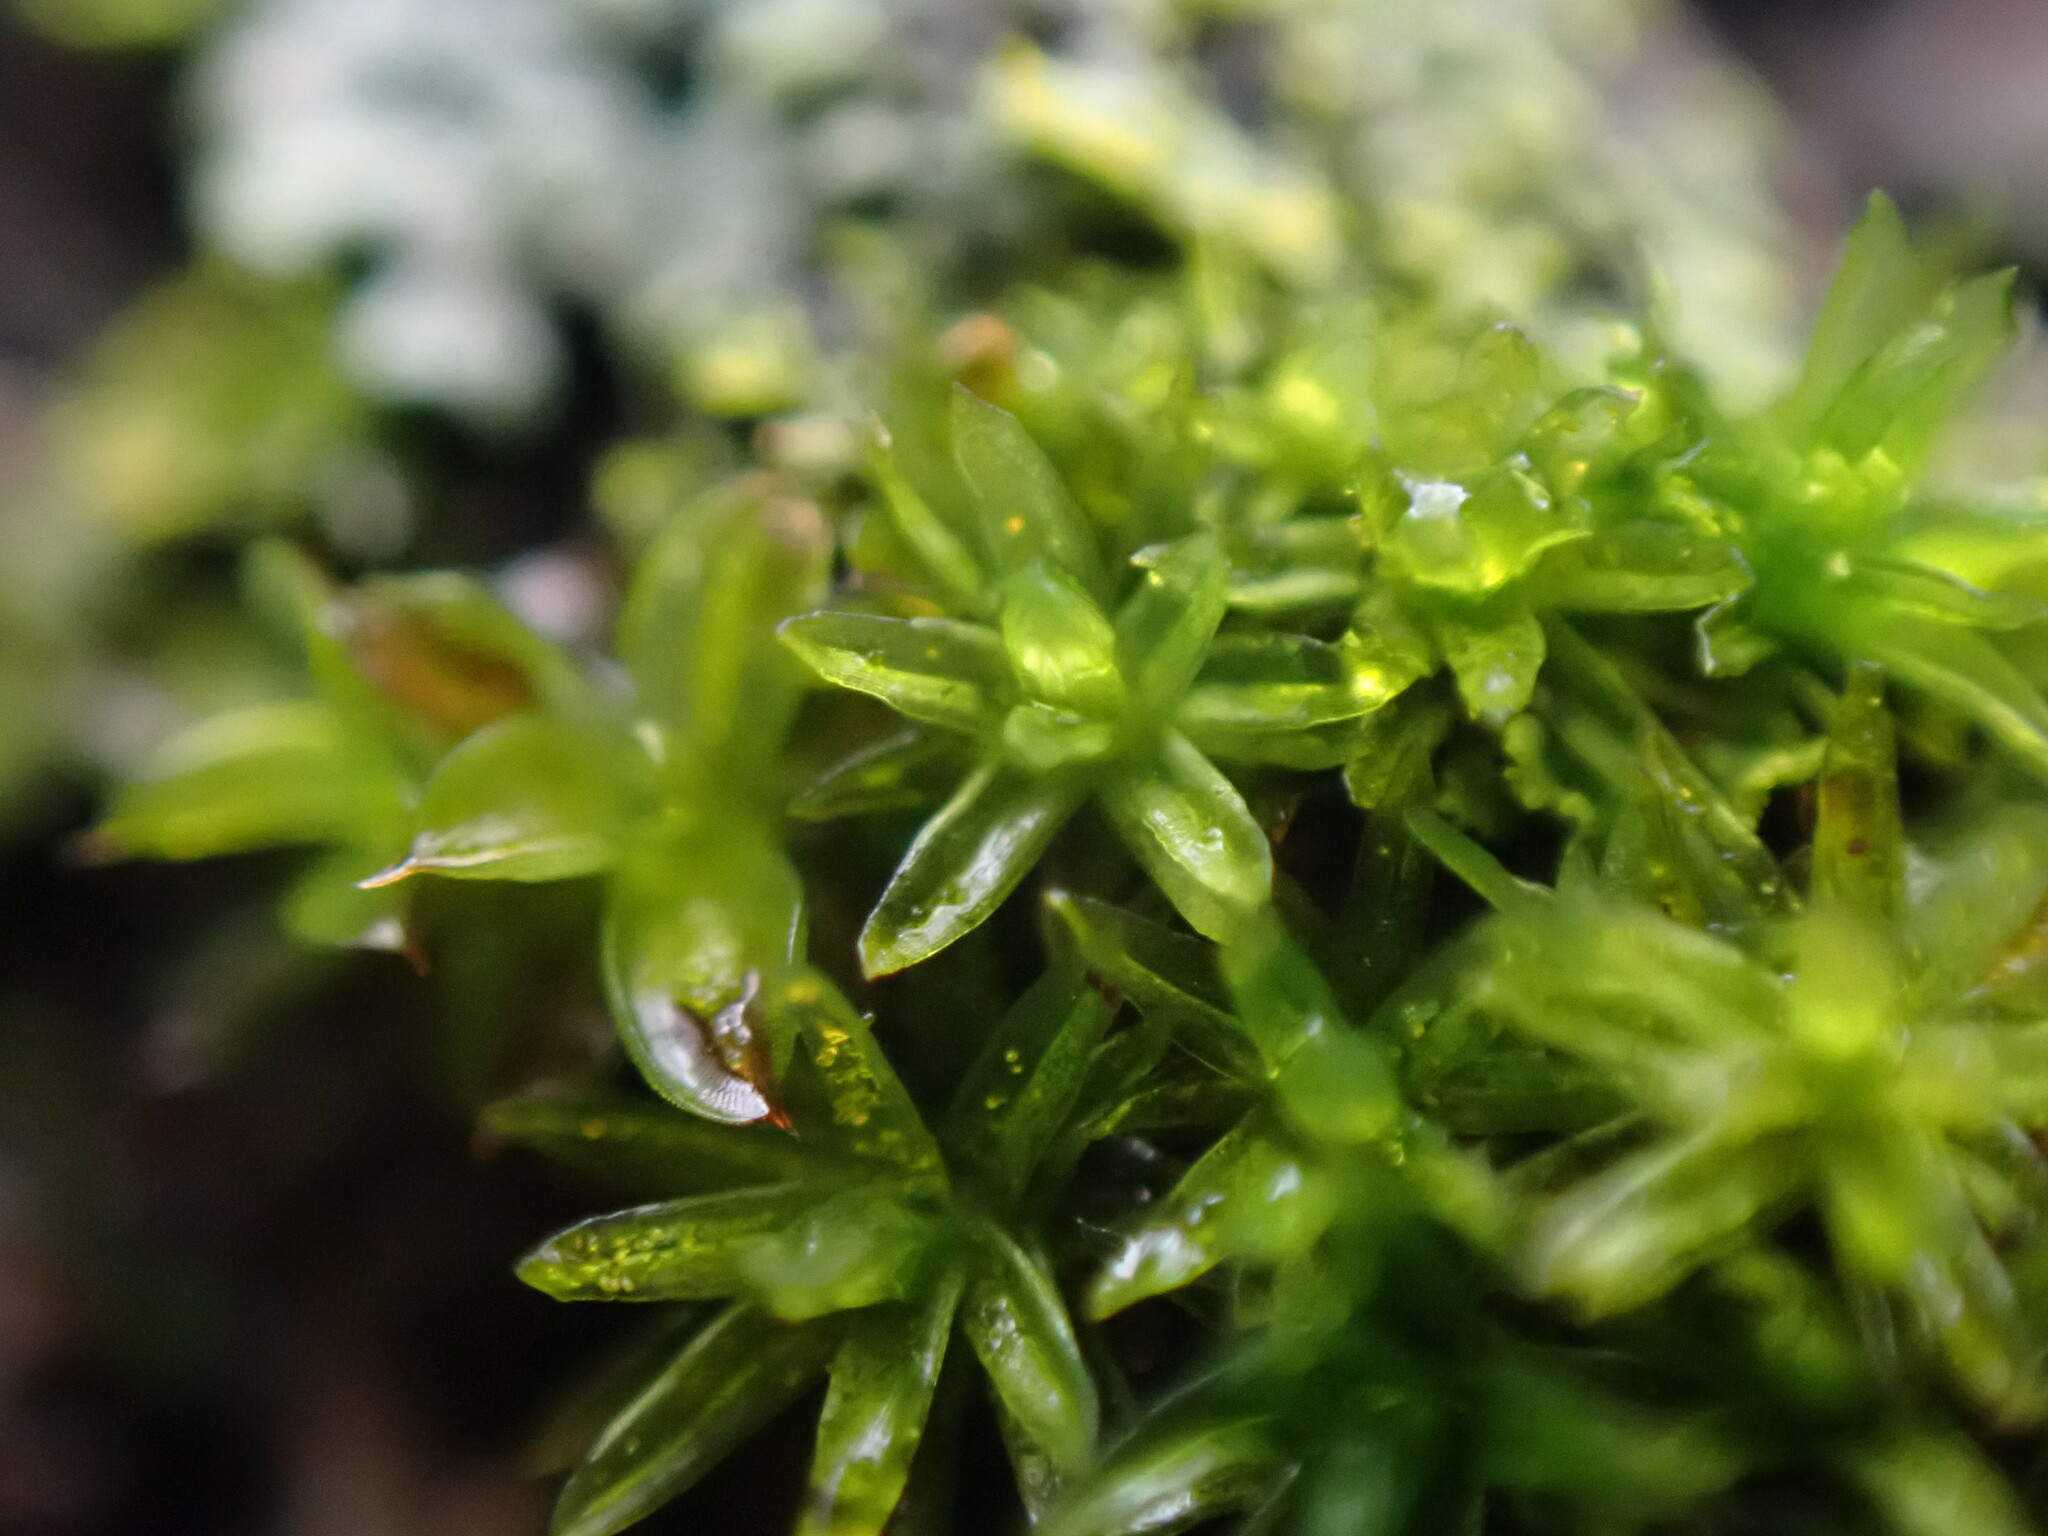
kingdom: Plantae
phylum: Bryophyta
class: Bryopsida
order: Pottiales
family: Pottiaceae
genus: Syntrichia
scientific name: Syntrichia papillosa
